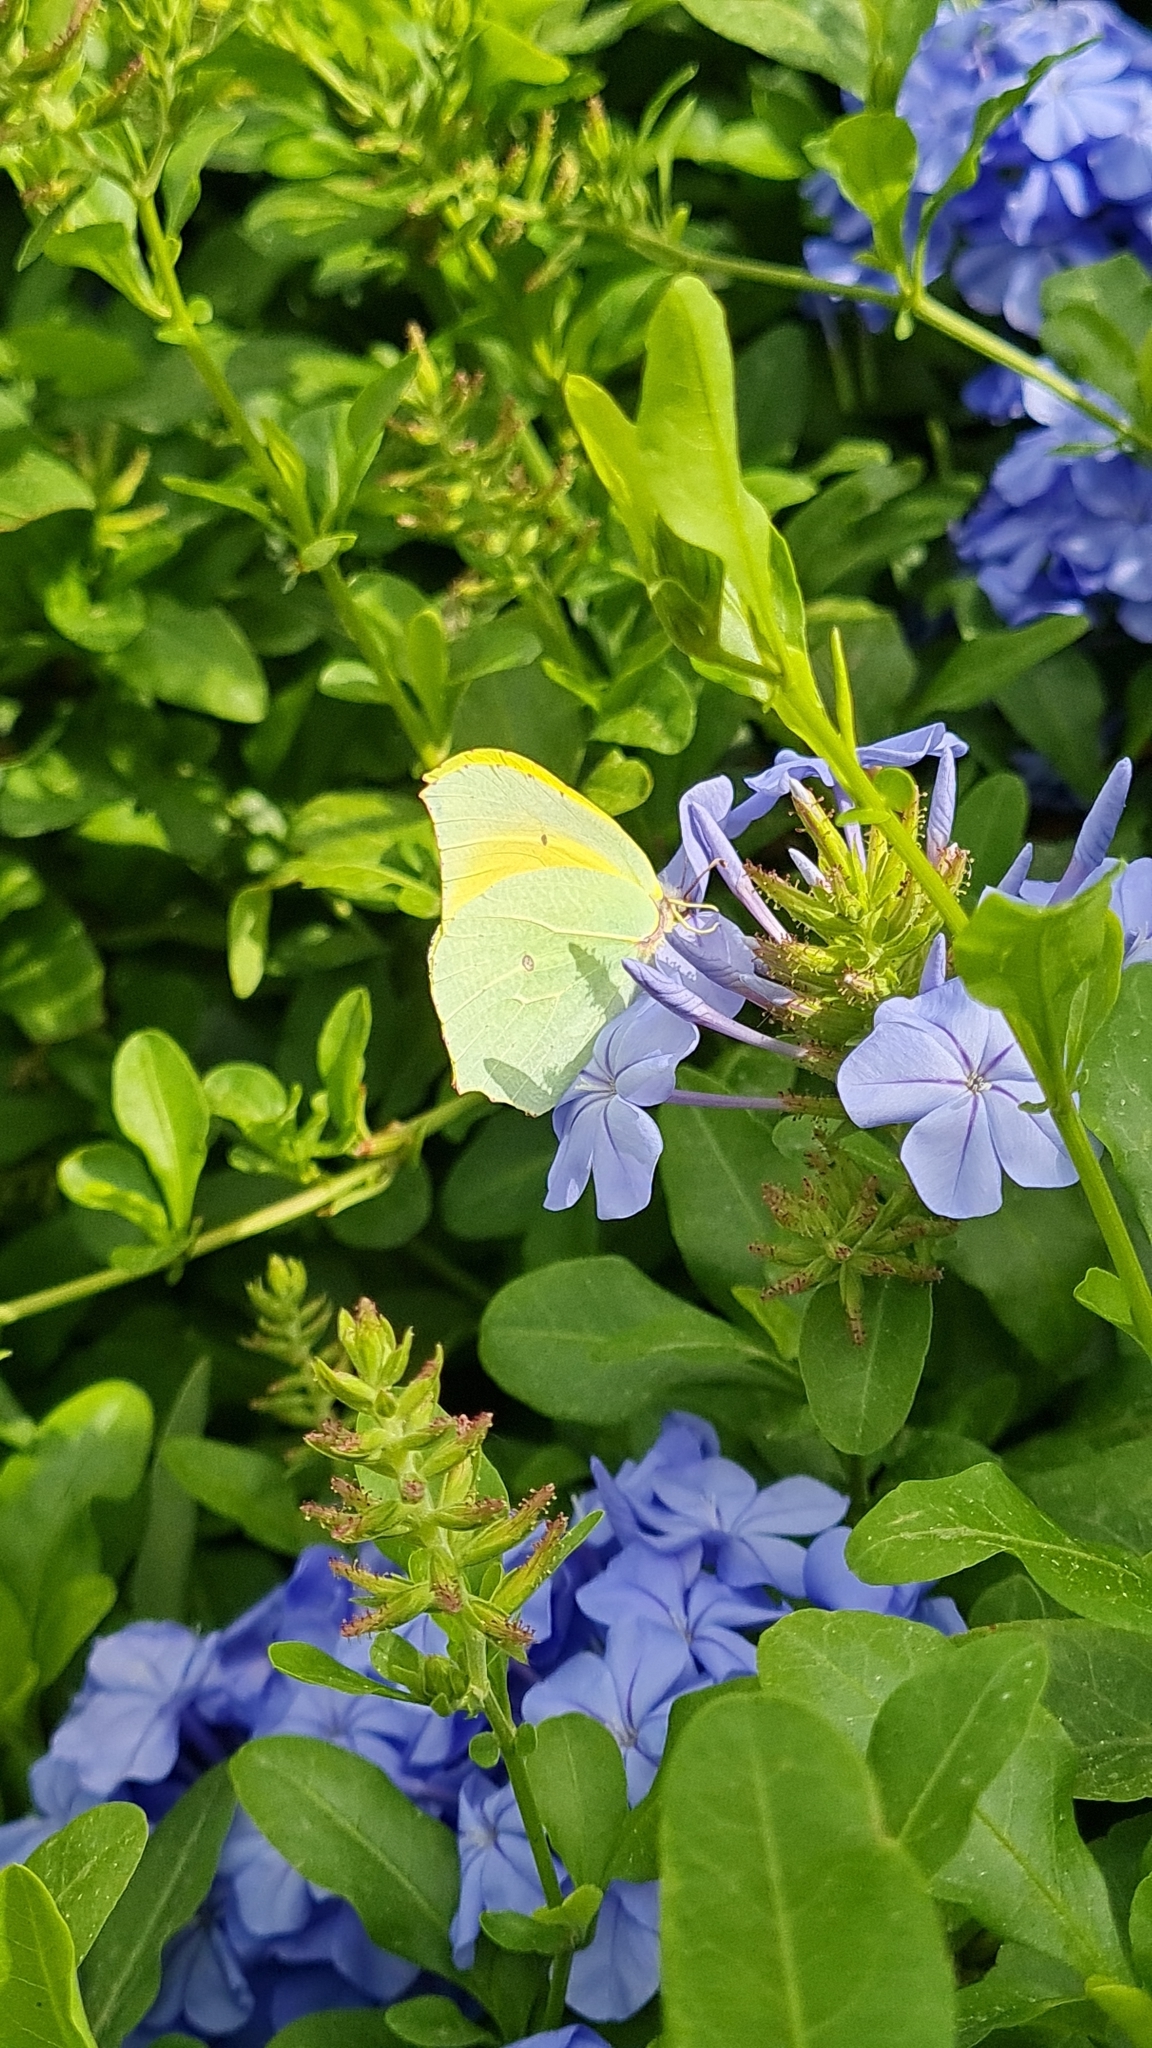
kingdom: Animalia
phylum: Arthropoda
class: Insecta
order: Lepidoptera
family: Pieridae
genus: Gonepteryx
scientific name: Gonepteryx cleopatra
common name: Cleopatra
